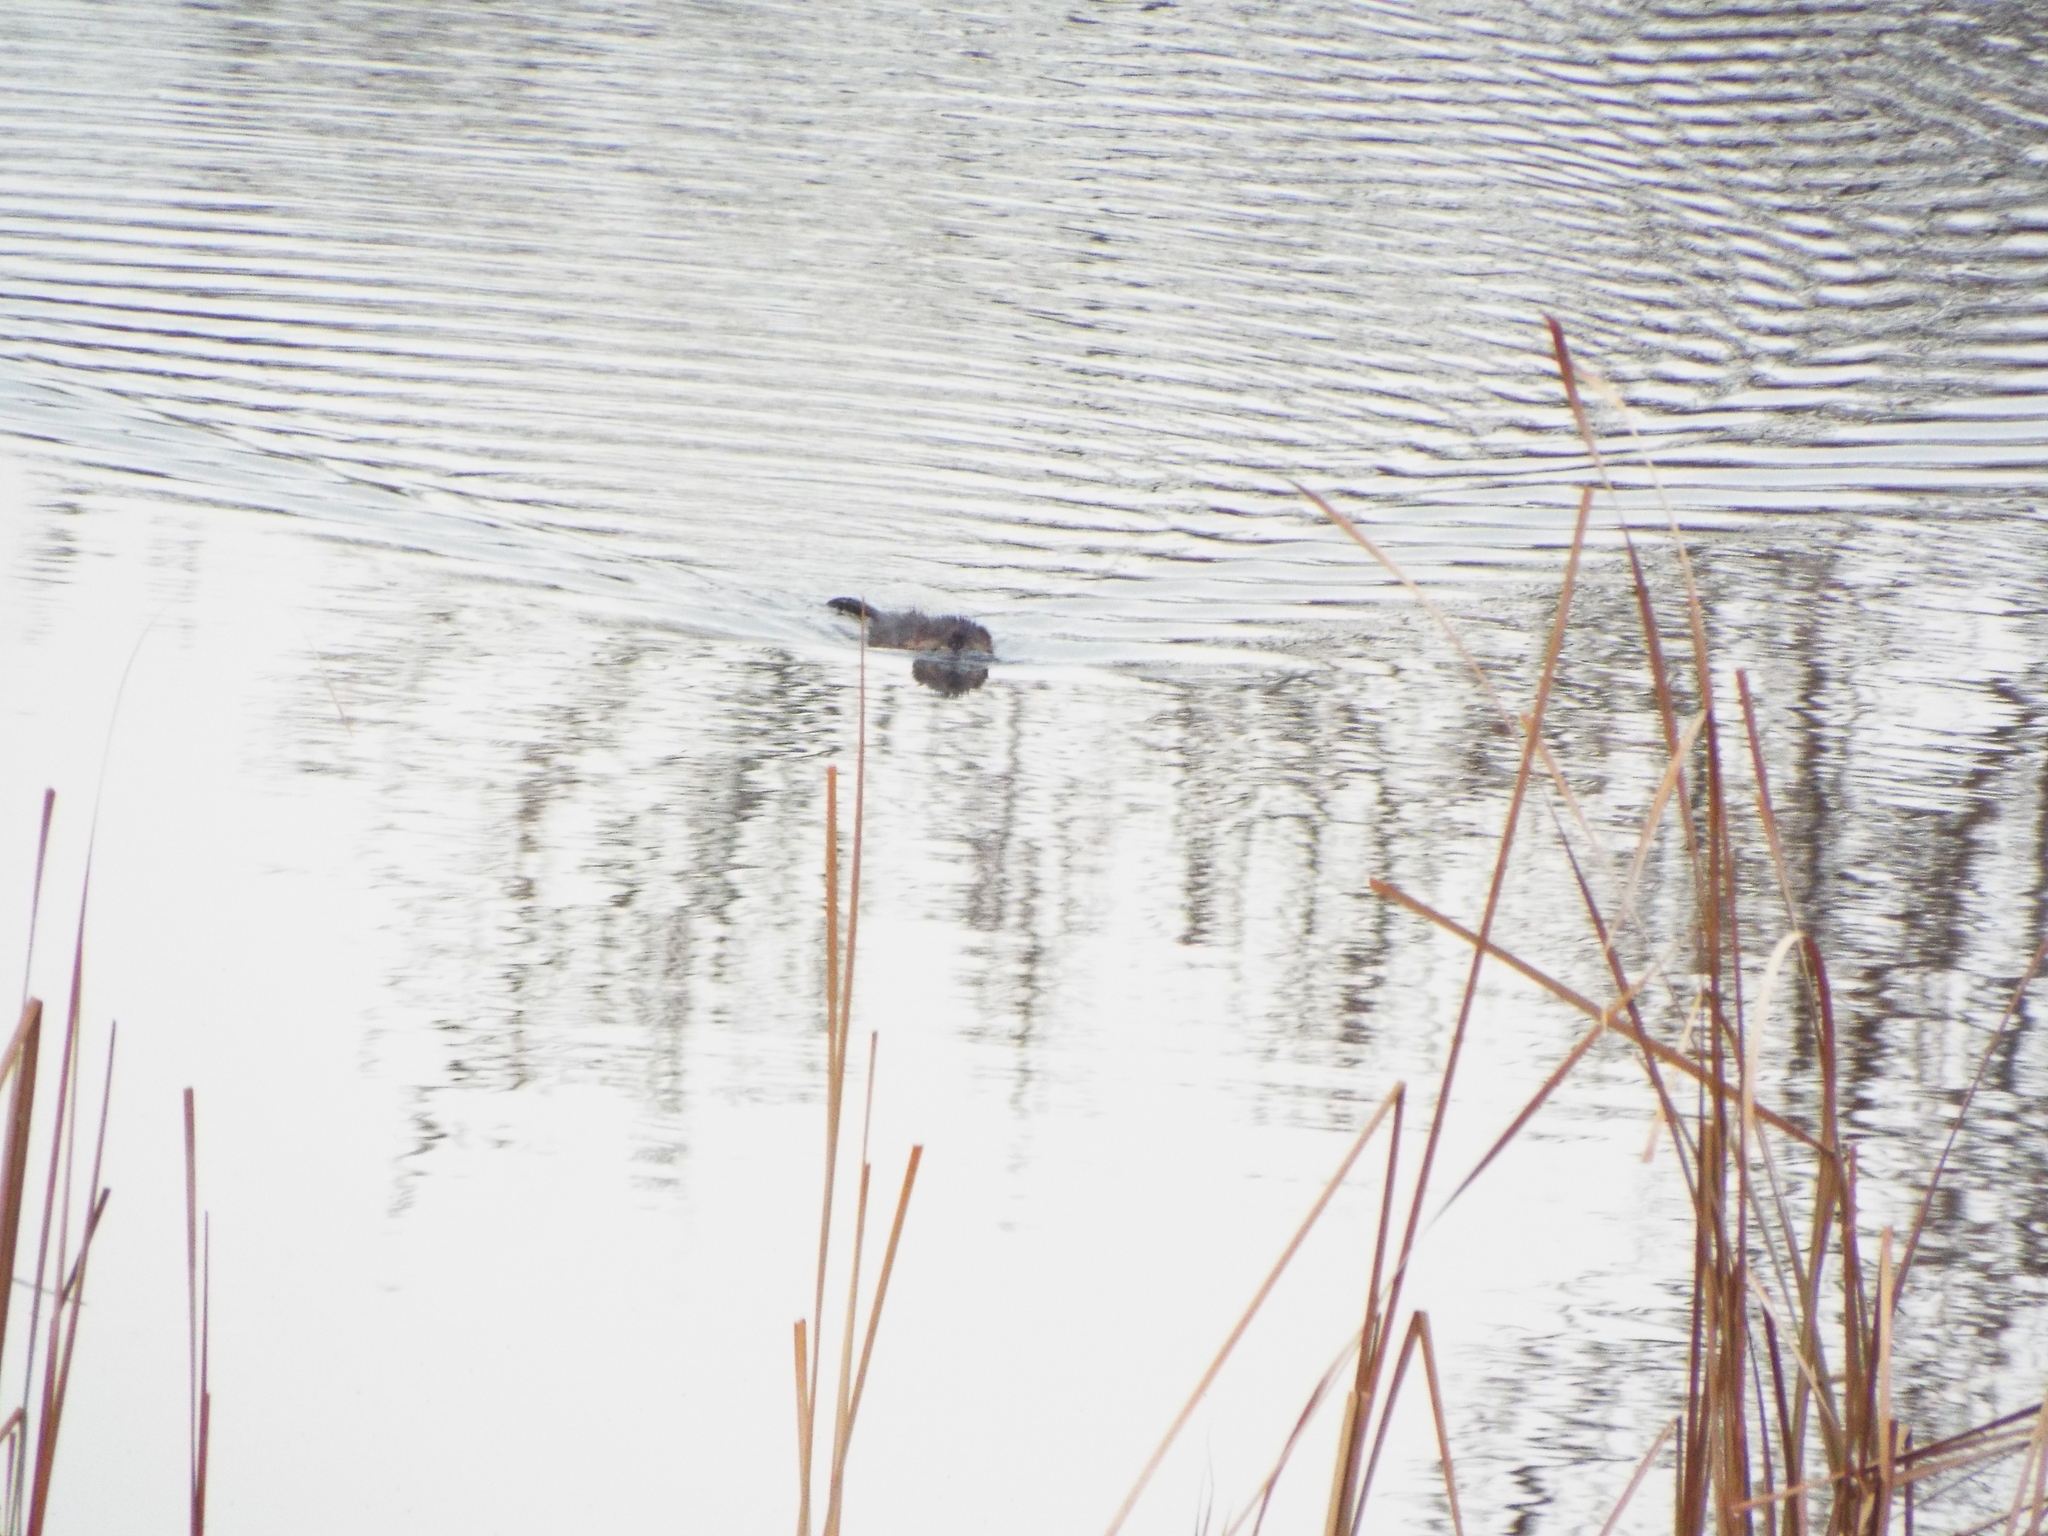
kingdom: Animalia
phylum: Chordata
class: Mammalia
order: Rodentia
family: Cricetidae
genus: Ondatra
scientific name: Ondatra zibethicus
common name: Muskrat
